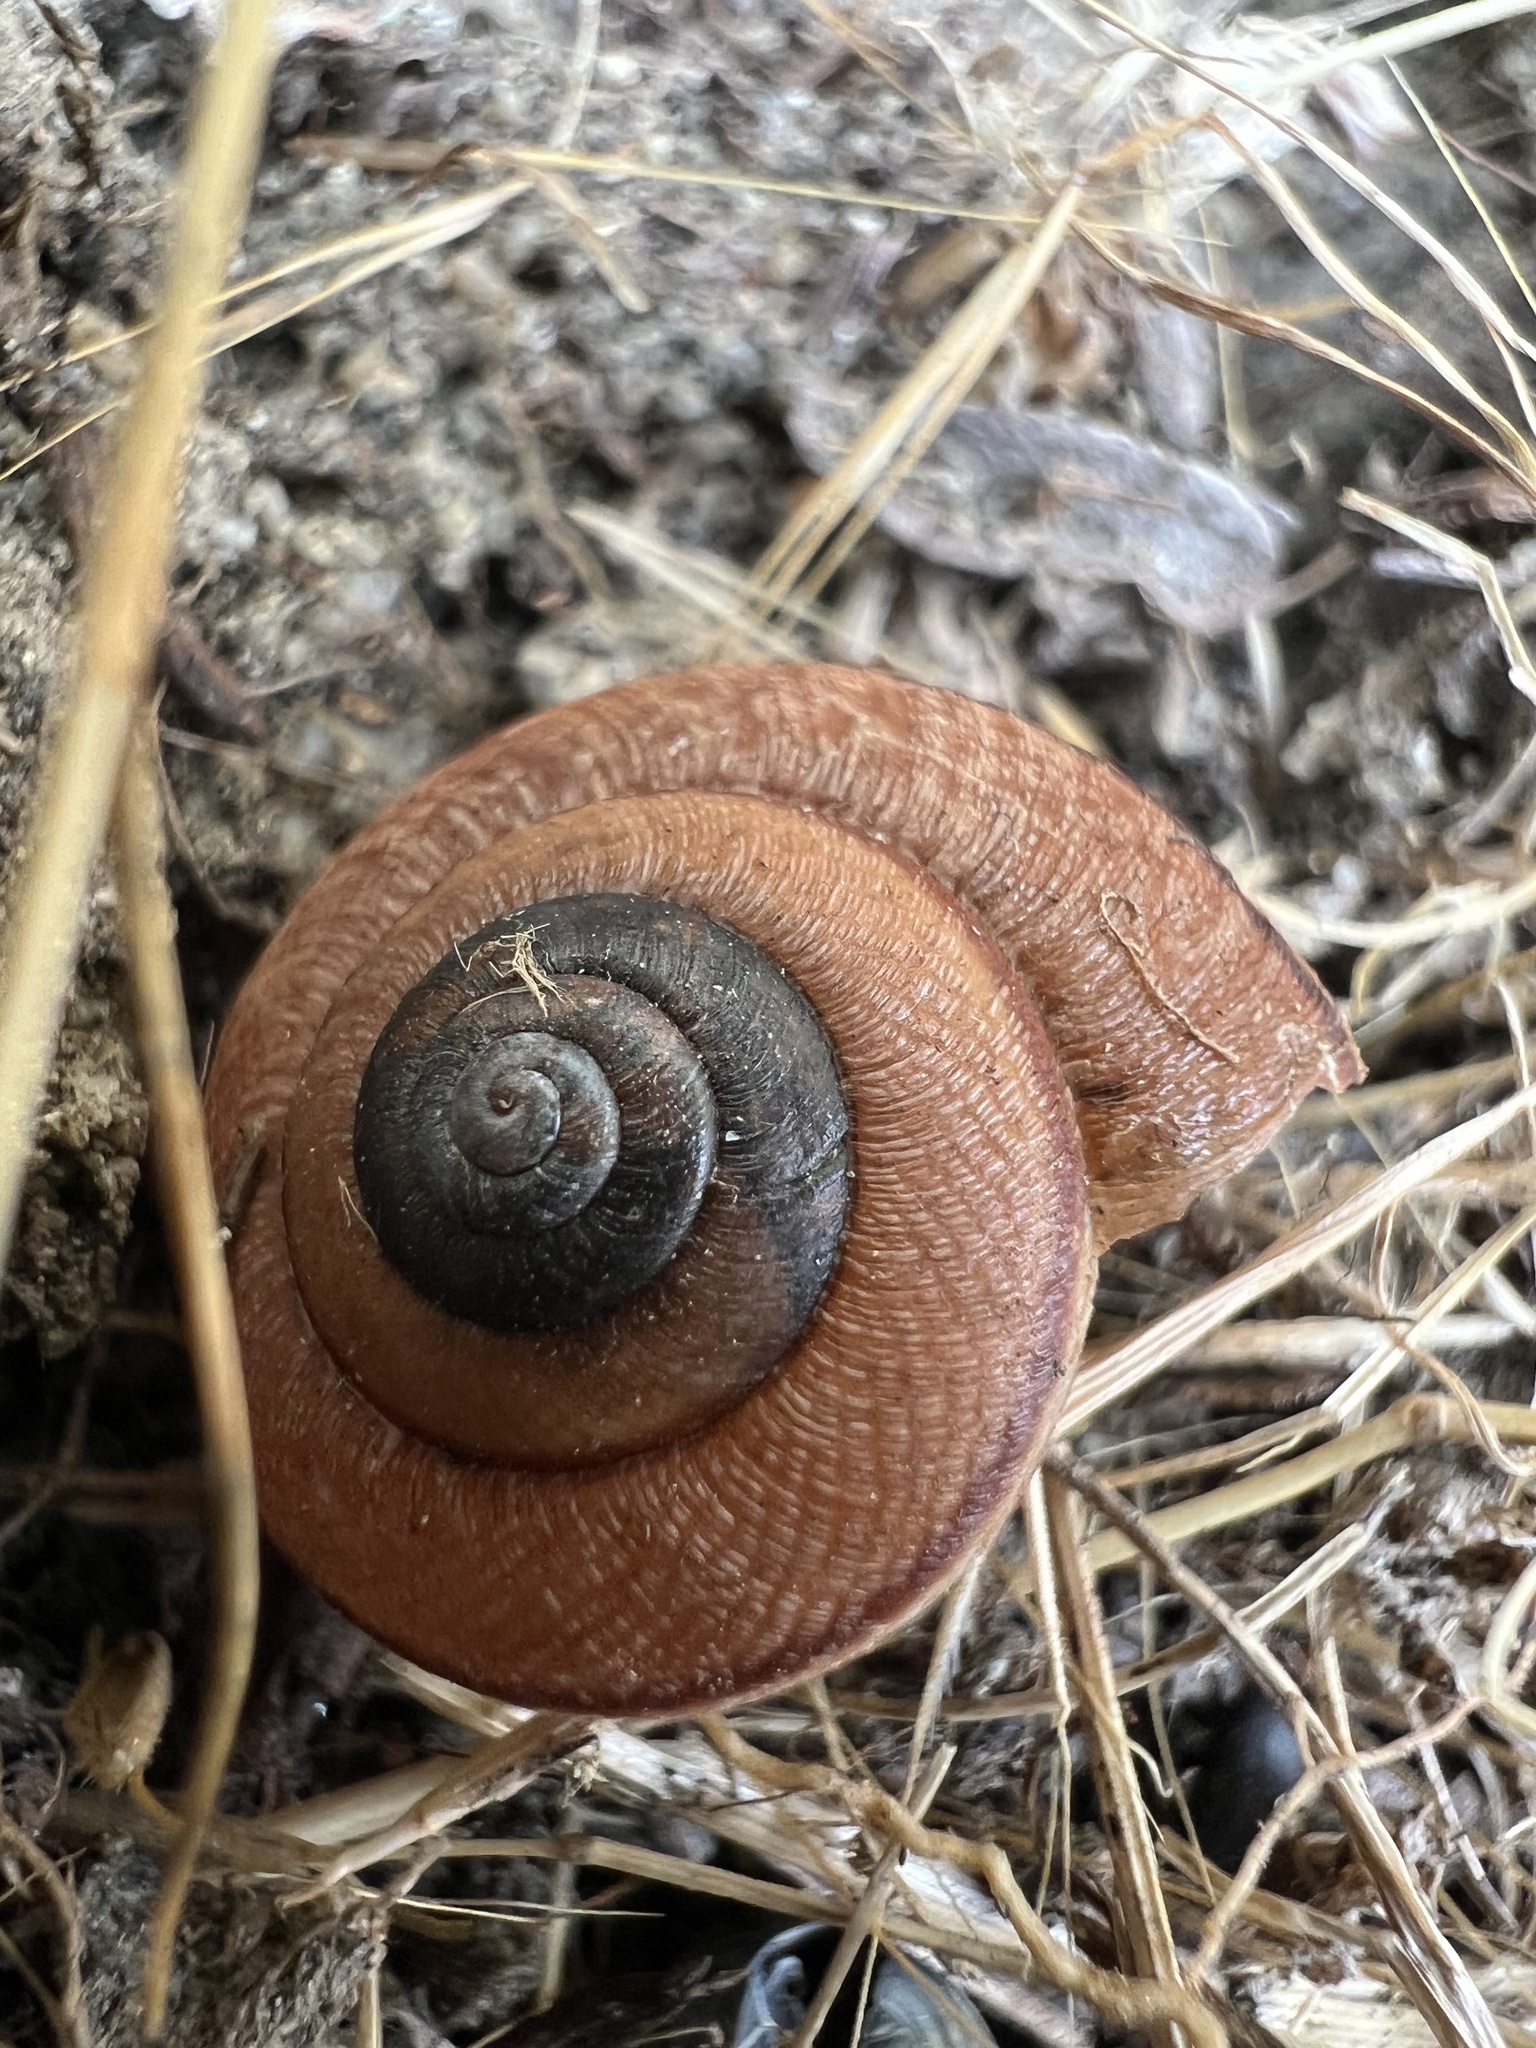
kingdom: Animalia
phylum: Mollusca
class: Gastropoda
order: Stylommatophora
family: Xanthonychidae
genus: Helminthoglypta
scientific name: Helminthoglypta nickliniana
